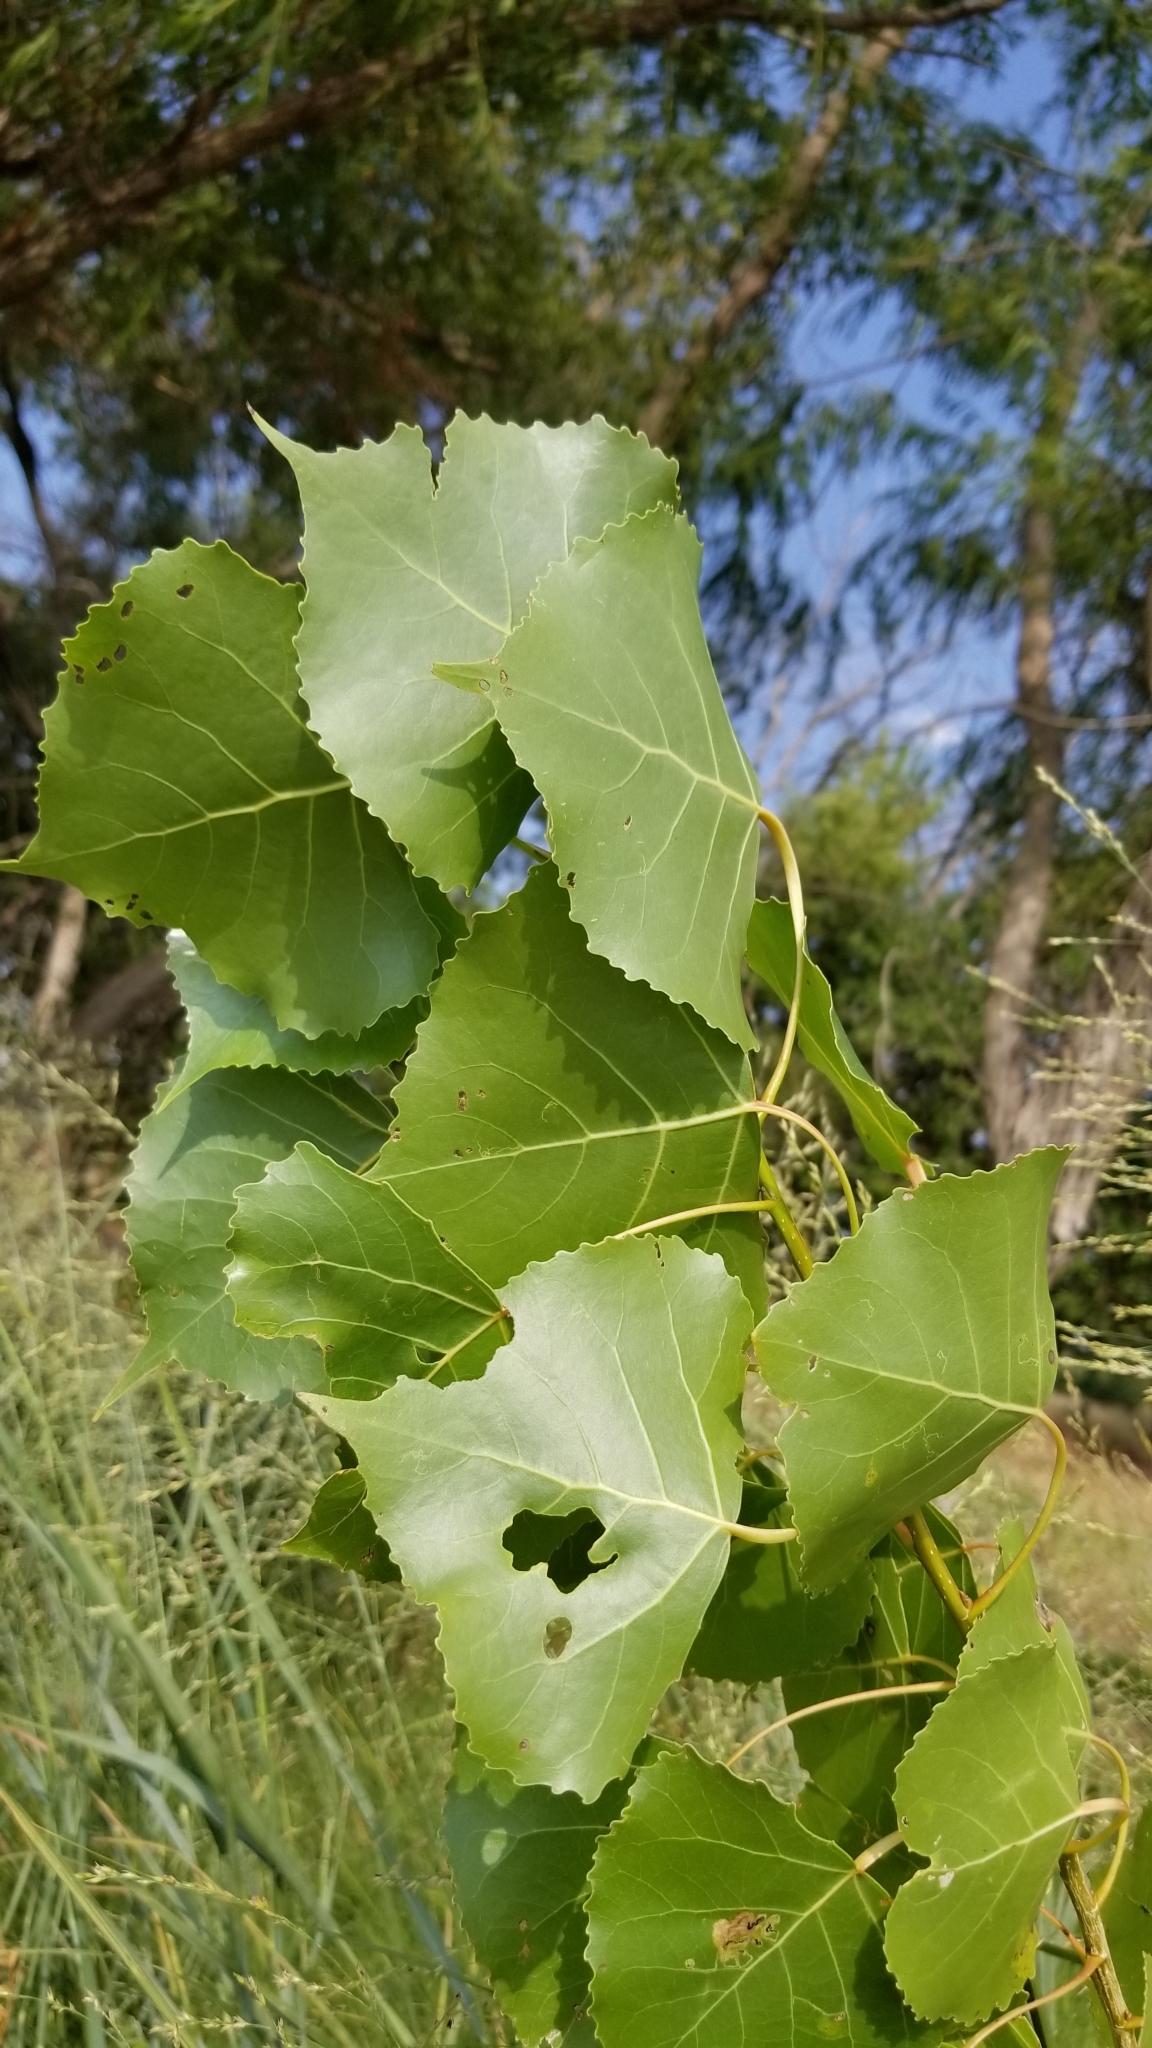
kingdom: Plantae
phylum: Tracheophyta
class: Magnoliopsida
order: Malpighiales
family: Salicaceae
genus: Populus
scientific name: Populus deltoides
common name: Eastern cottonwood
